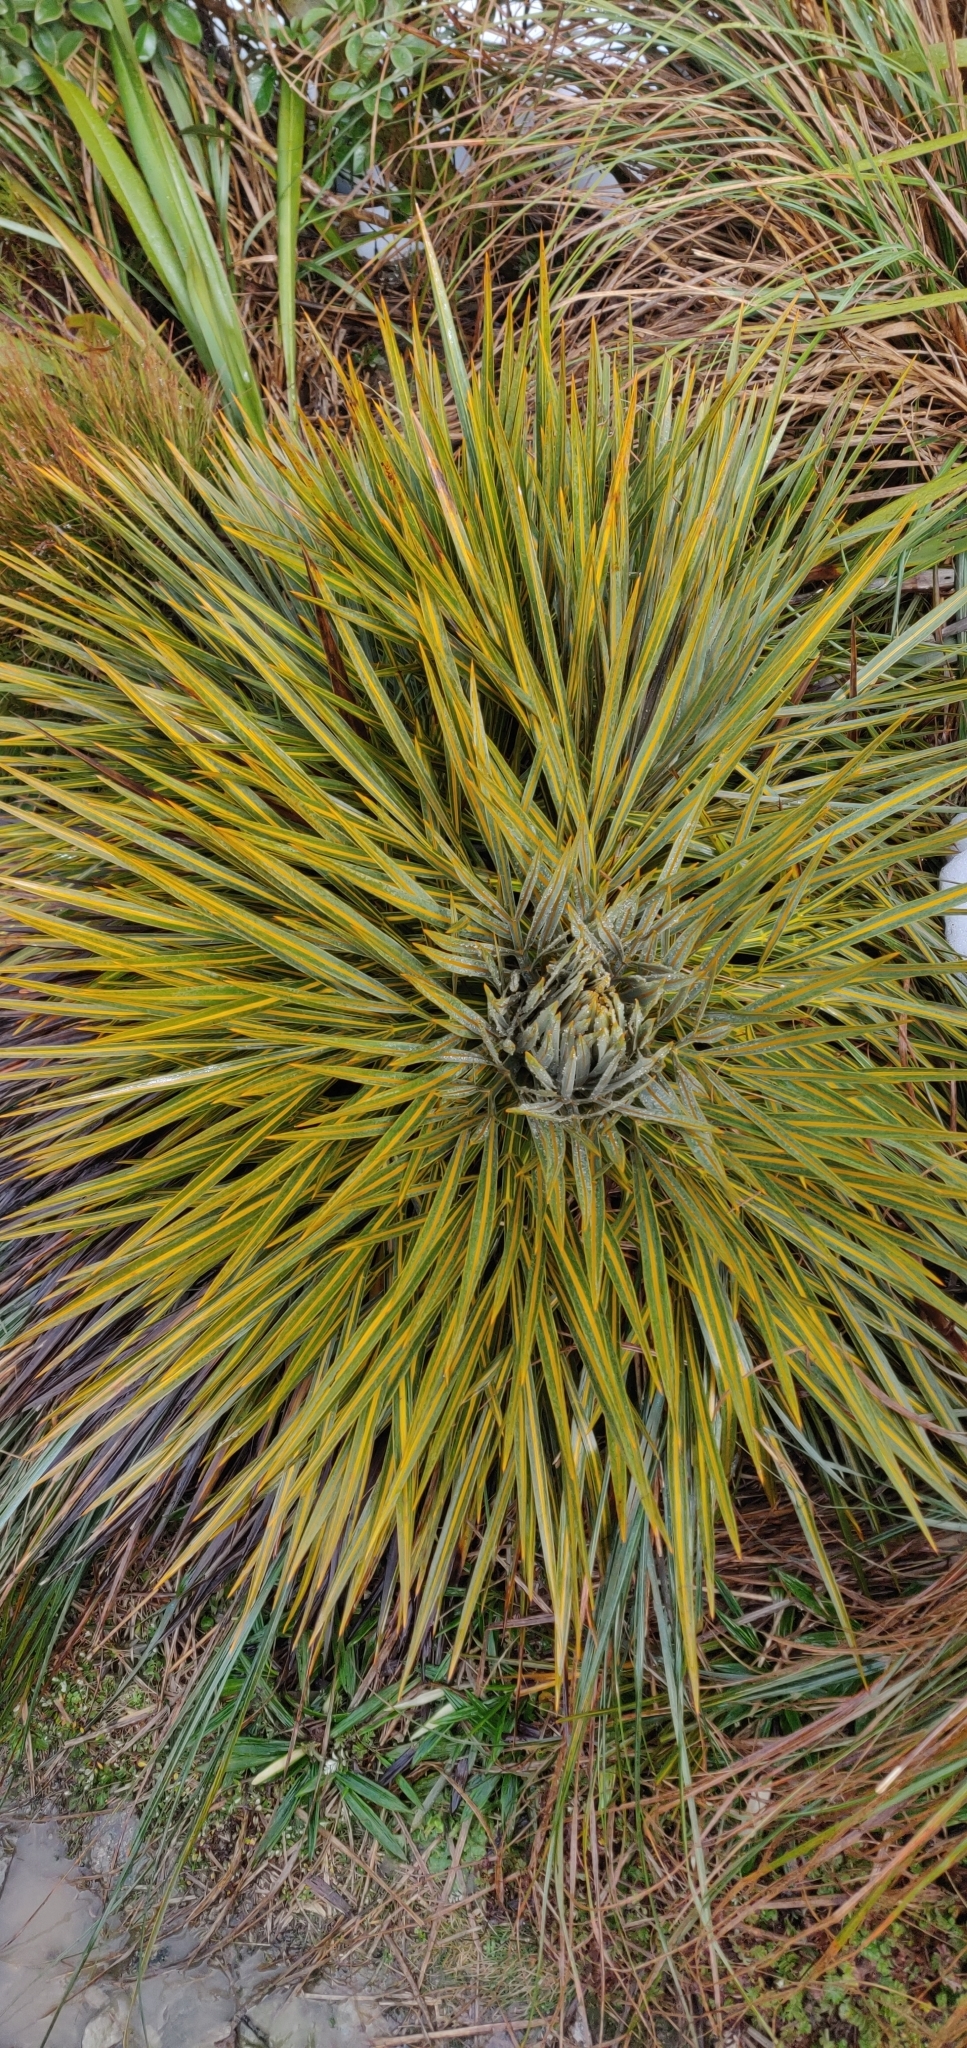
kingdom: Plantae
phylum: Tracheophyta
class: Magnoliopsida
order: Apiales
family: Apiaceae
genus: Aciphylla
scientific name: Aciphylla colensoi
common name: Colenso's spaniard
